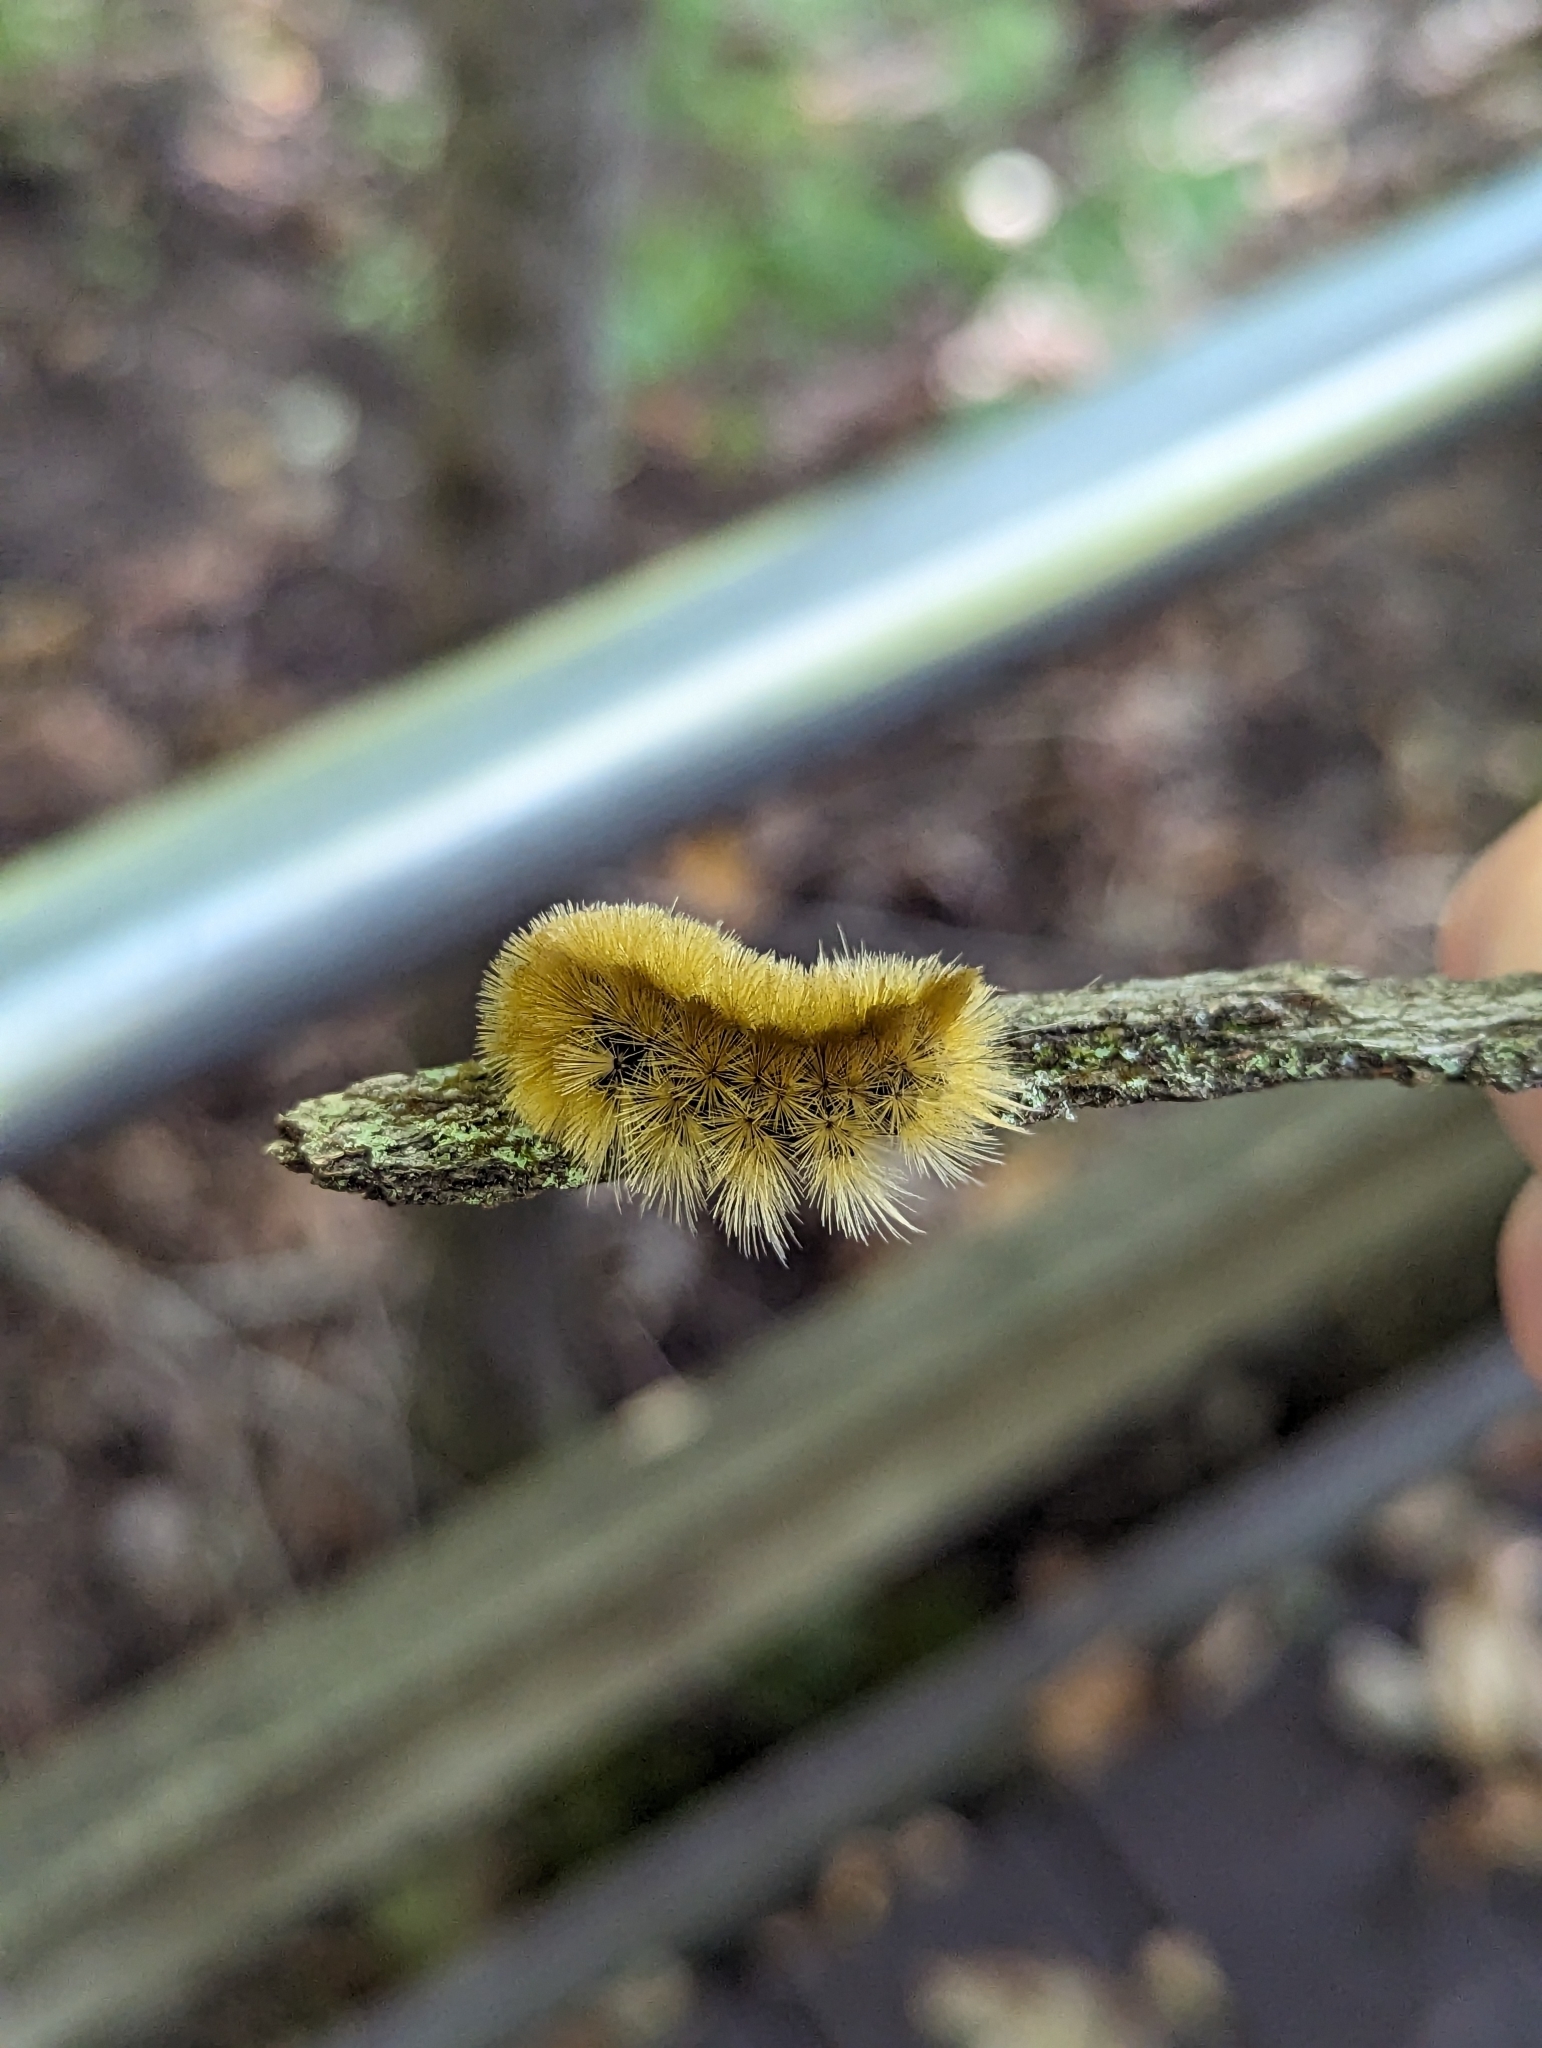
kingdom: Animalia
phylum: Arthropoda
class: Insecta
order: Lepidoptera
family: Erebidae
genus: Halysidota
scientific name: Halysidota tessellaris
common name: Banded tussock moth
